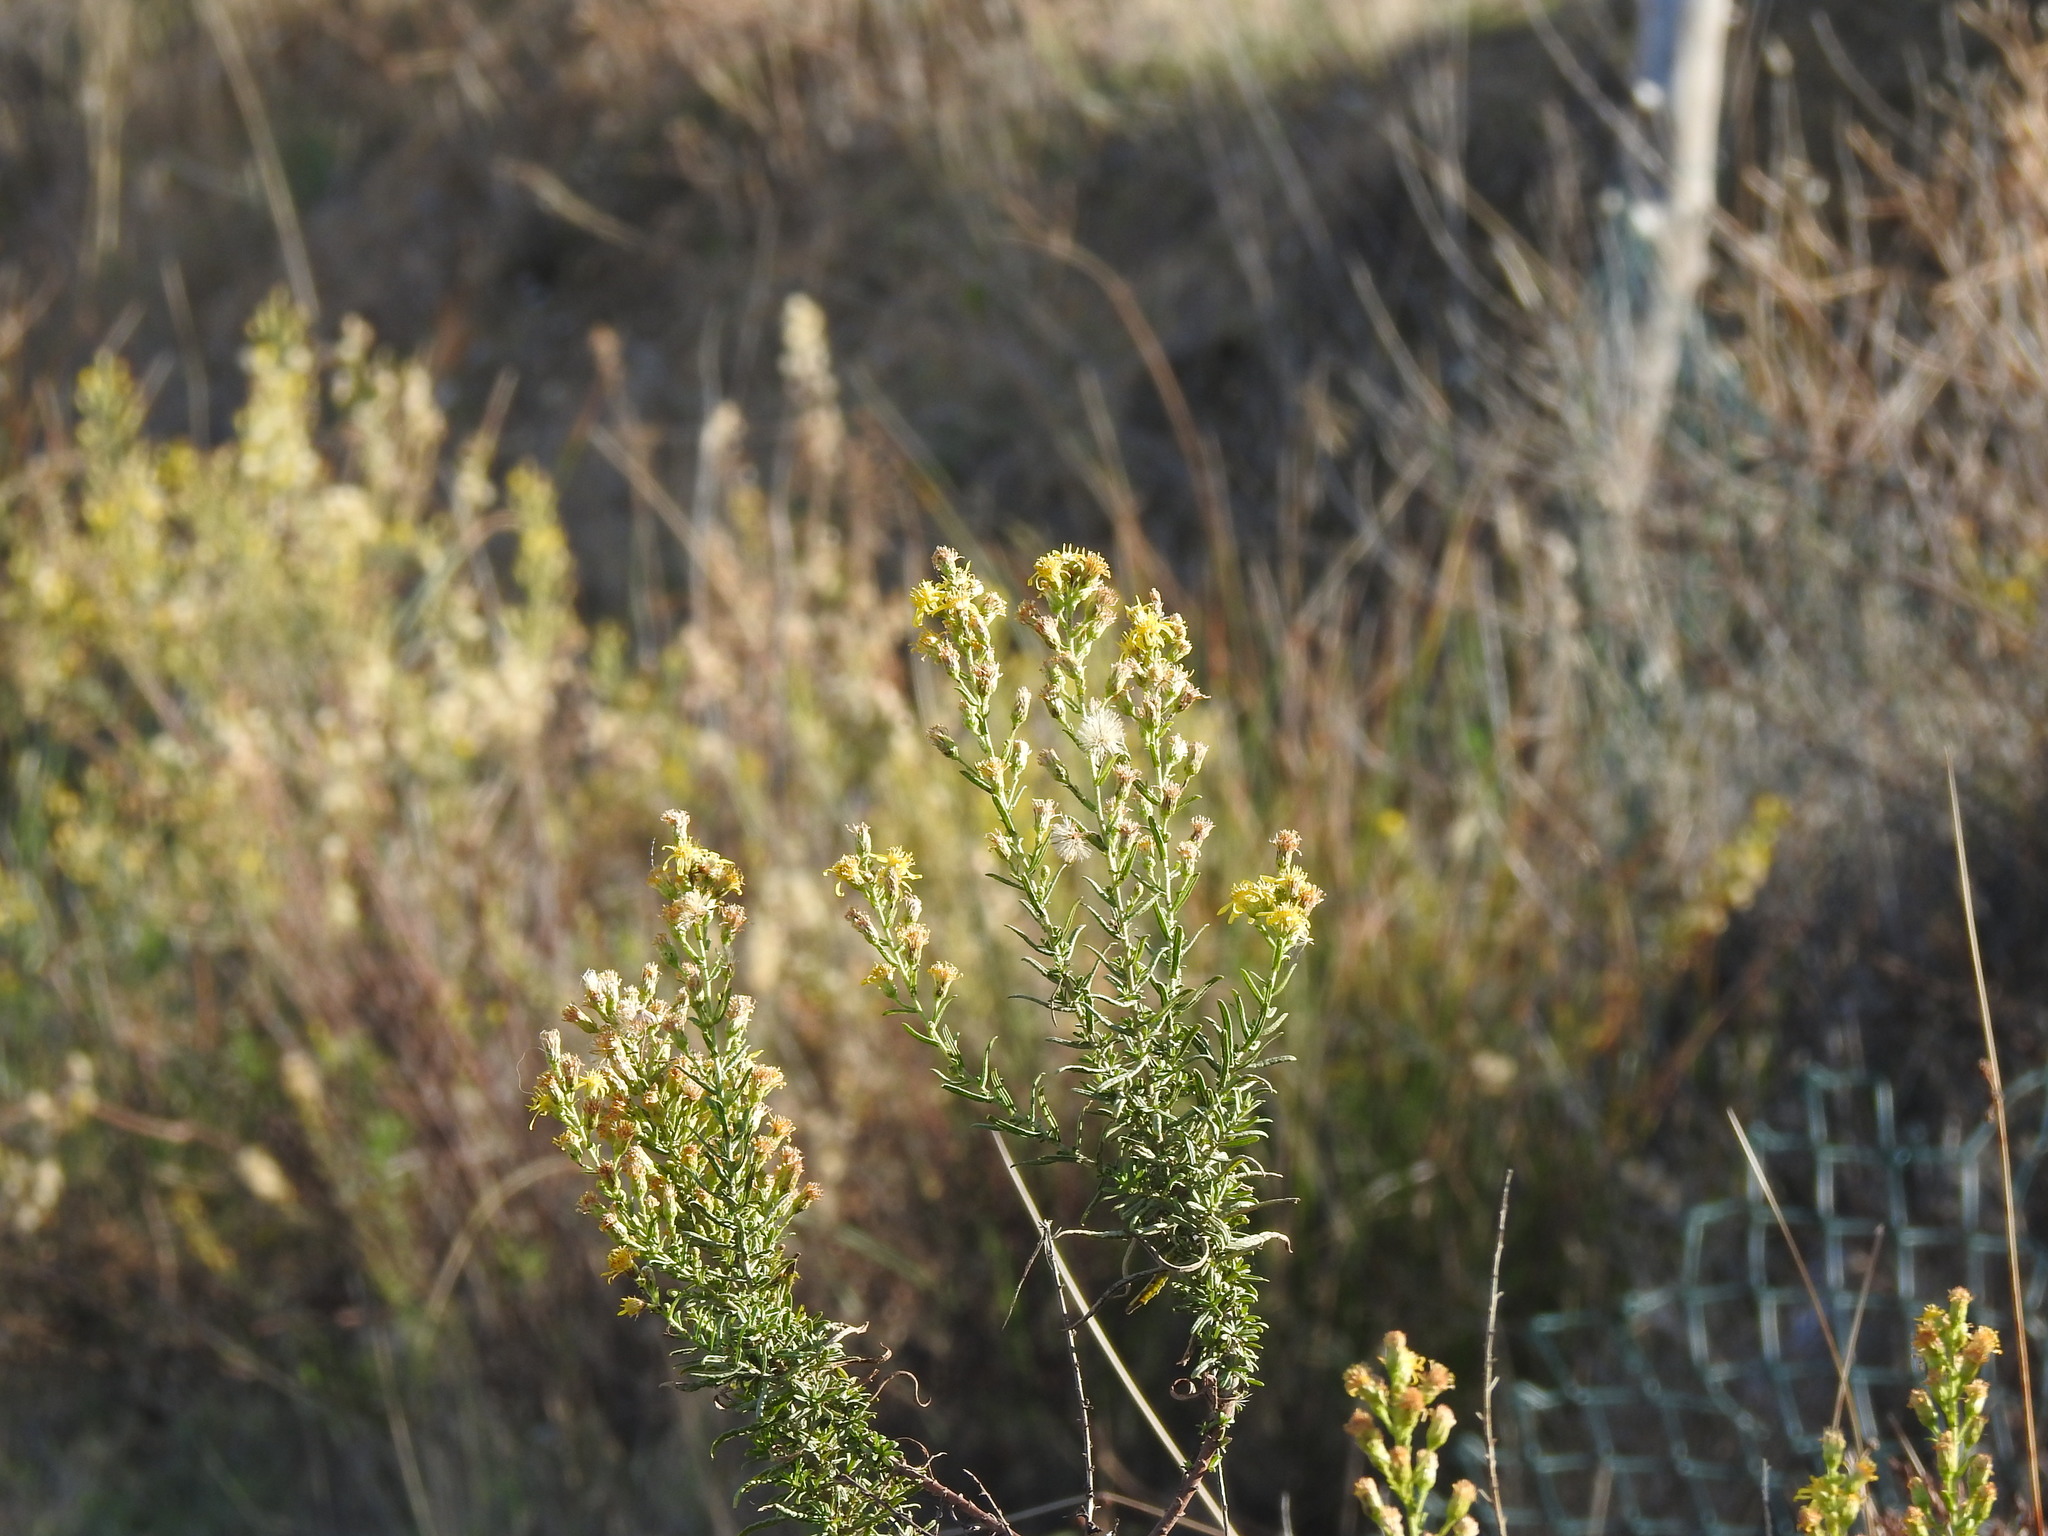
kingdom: Plantae
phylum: Tracheophyta
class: Magnoliopsida
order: Asterales
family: Asteraceae
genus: Dittrichia
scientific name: Dittrichia viscosa
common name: Woody fleabane
